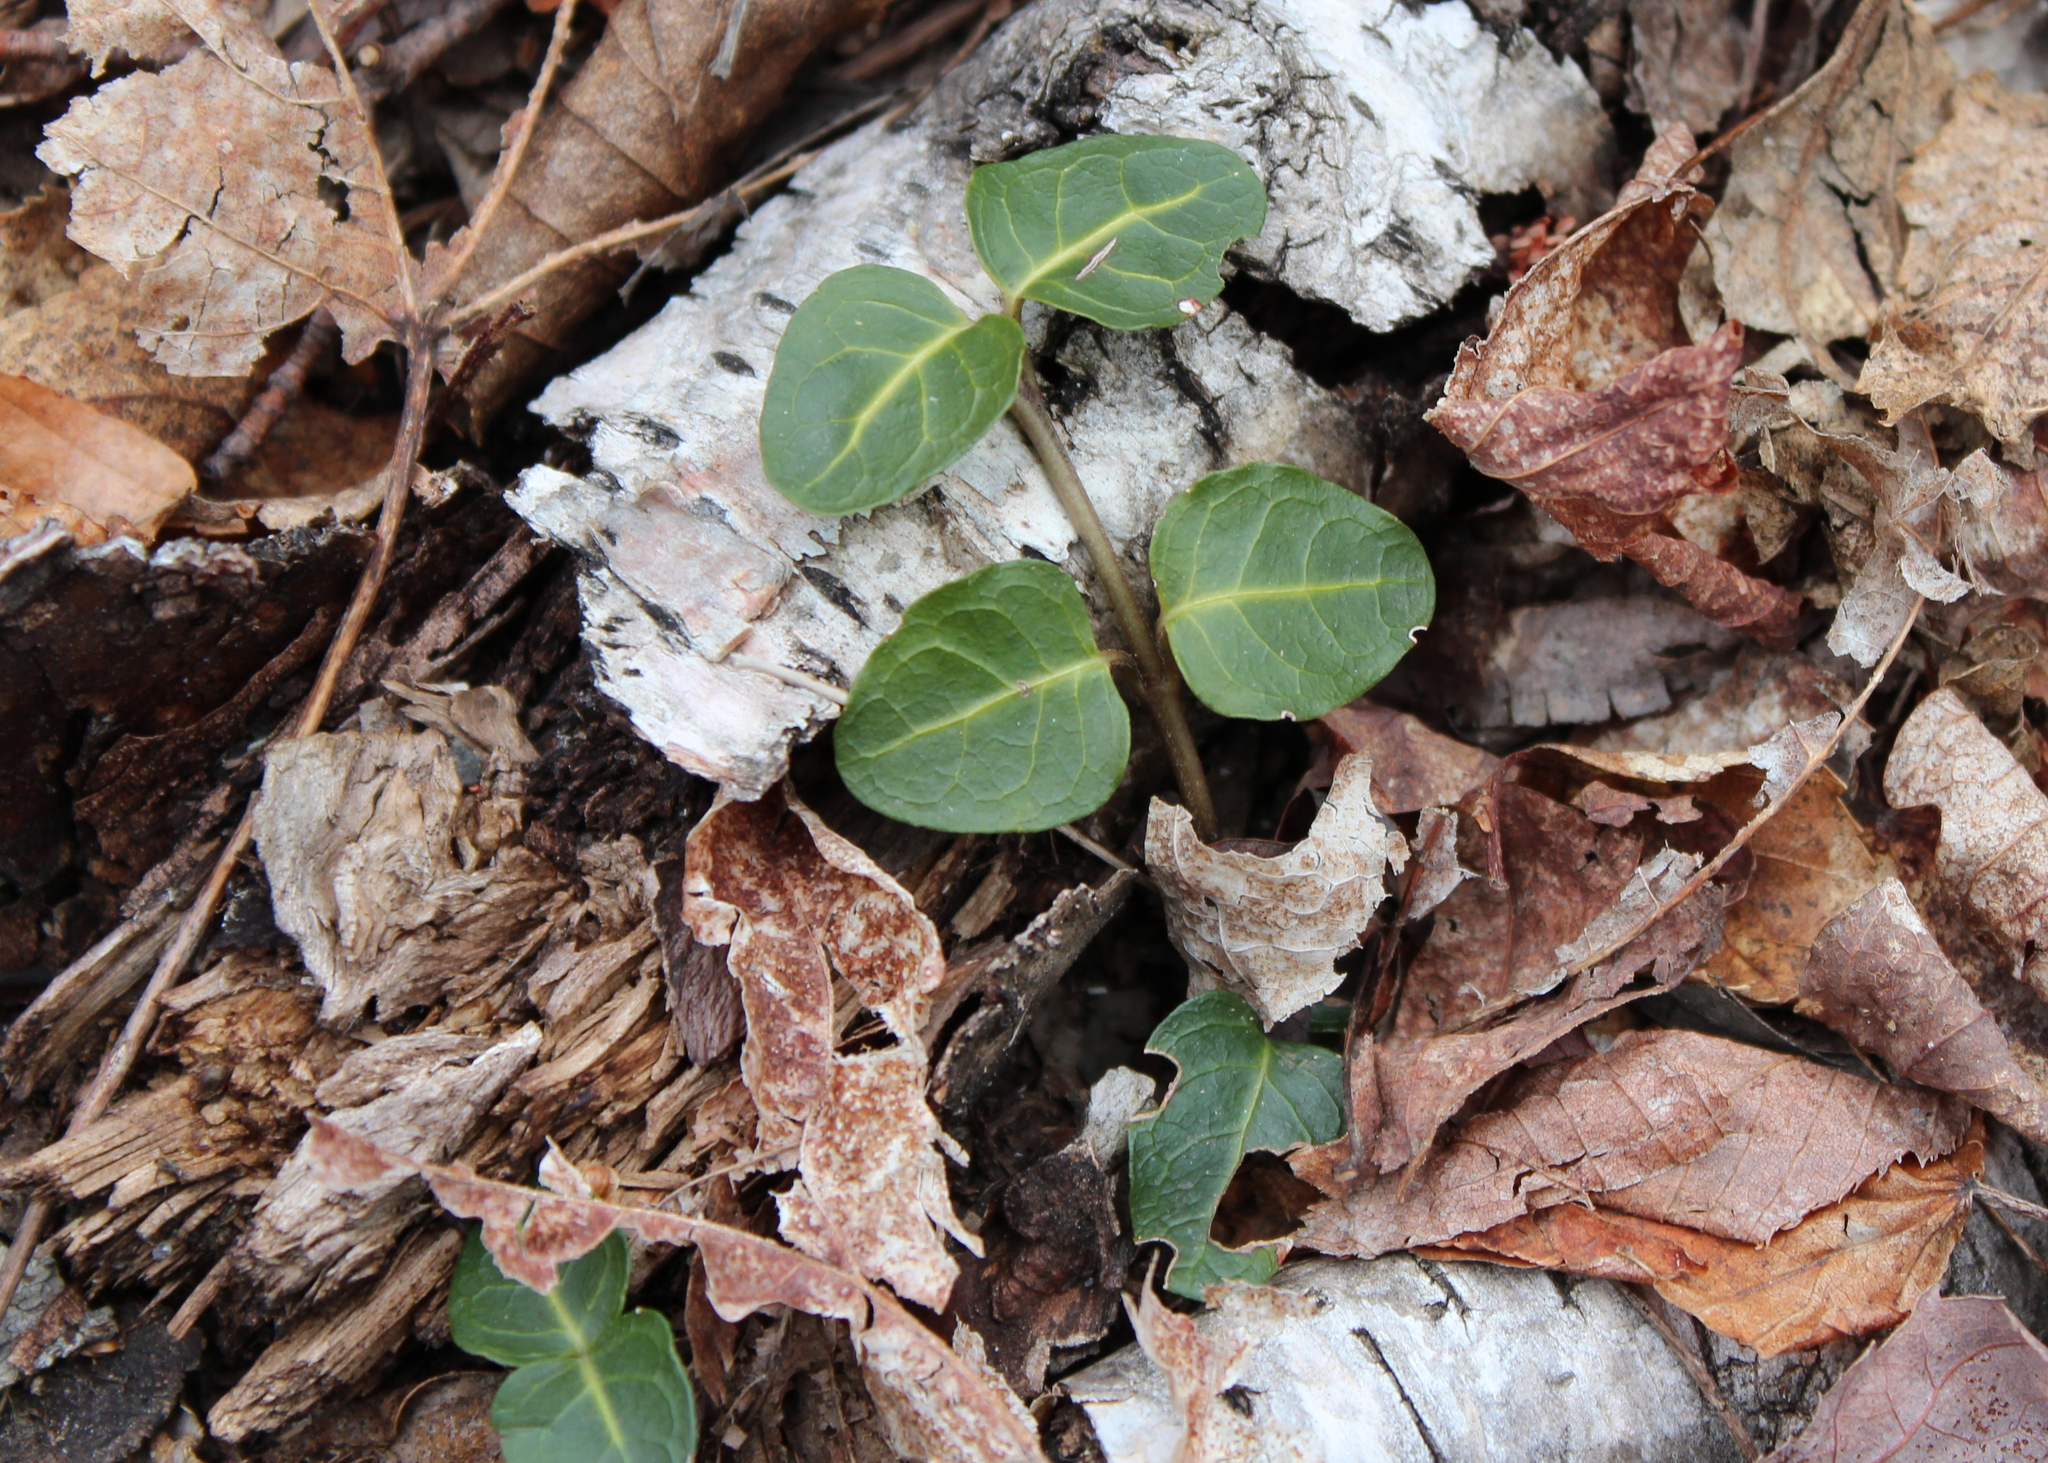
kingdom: Plantae
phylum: Tracheophyta
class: Magnoliopsida
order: Gentianales
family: Rubiaceae
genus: Mitchella
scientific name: Mitchella repens
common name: Partridge-berry
